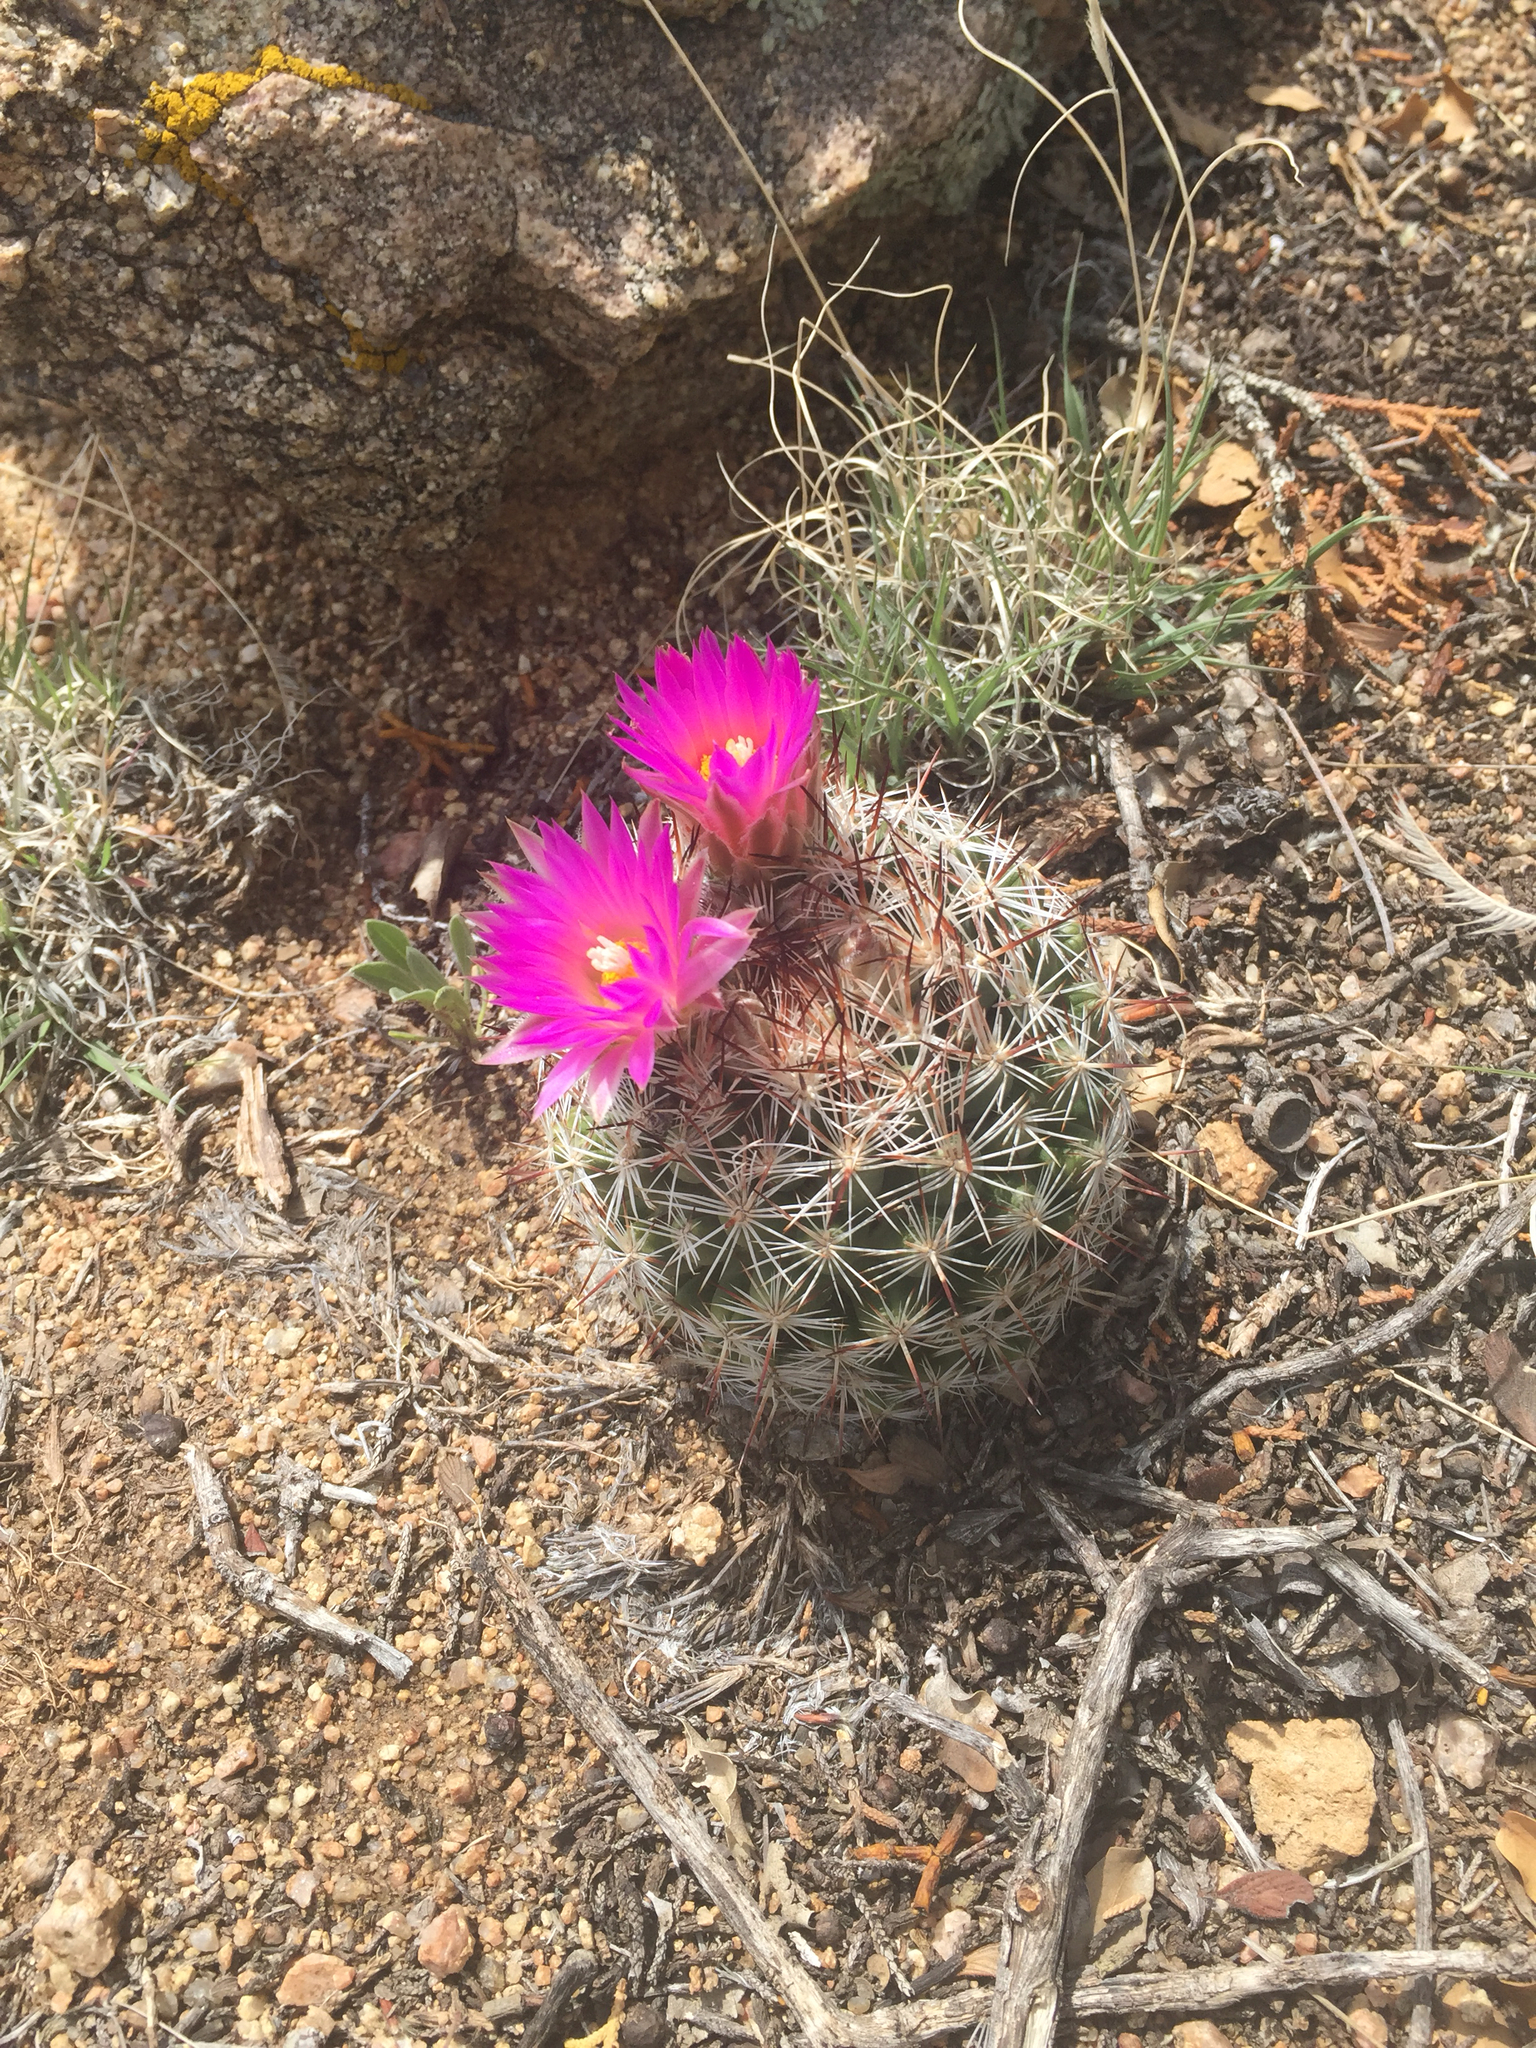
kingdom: Plantae
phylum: Tracheophyta
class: Magnoliopsida
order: Caryophyllales
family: Cactaceae
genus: Pelecyphora
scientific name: Pelecyphora vivipara
